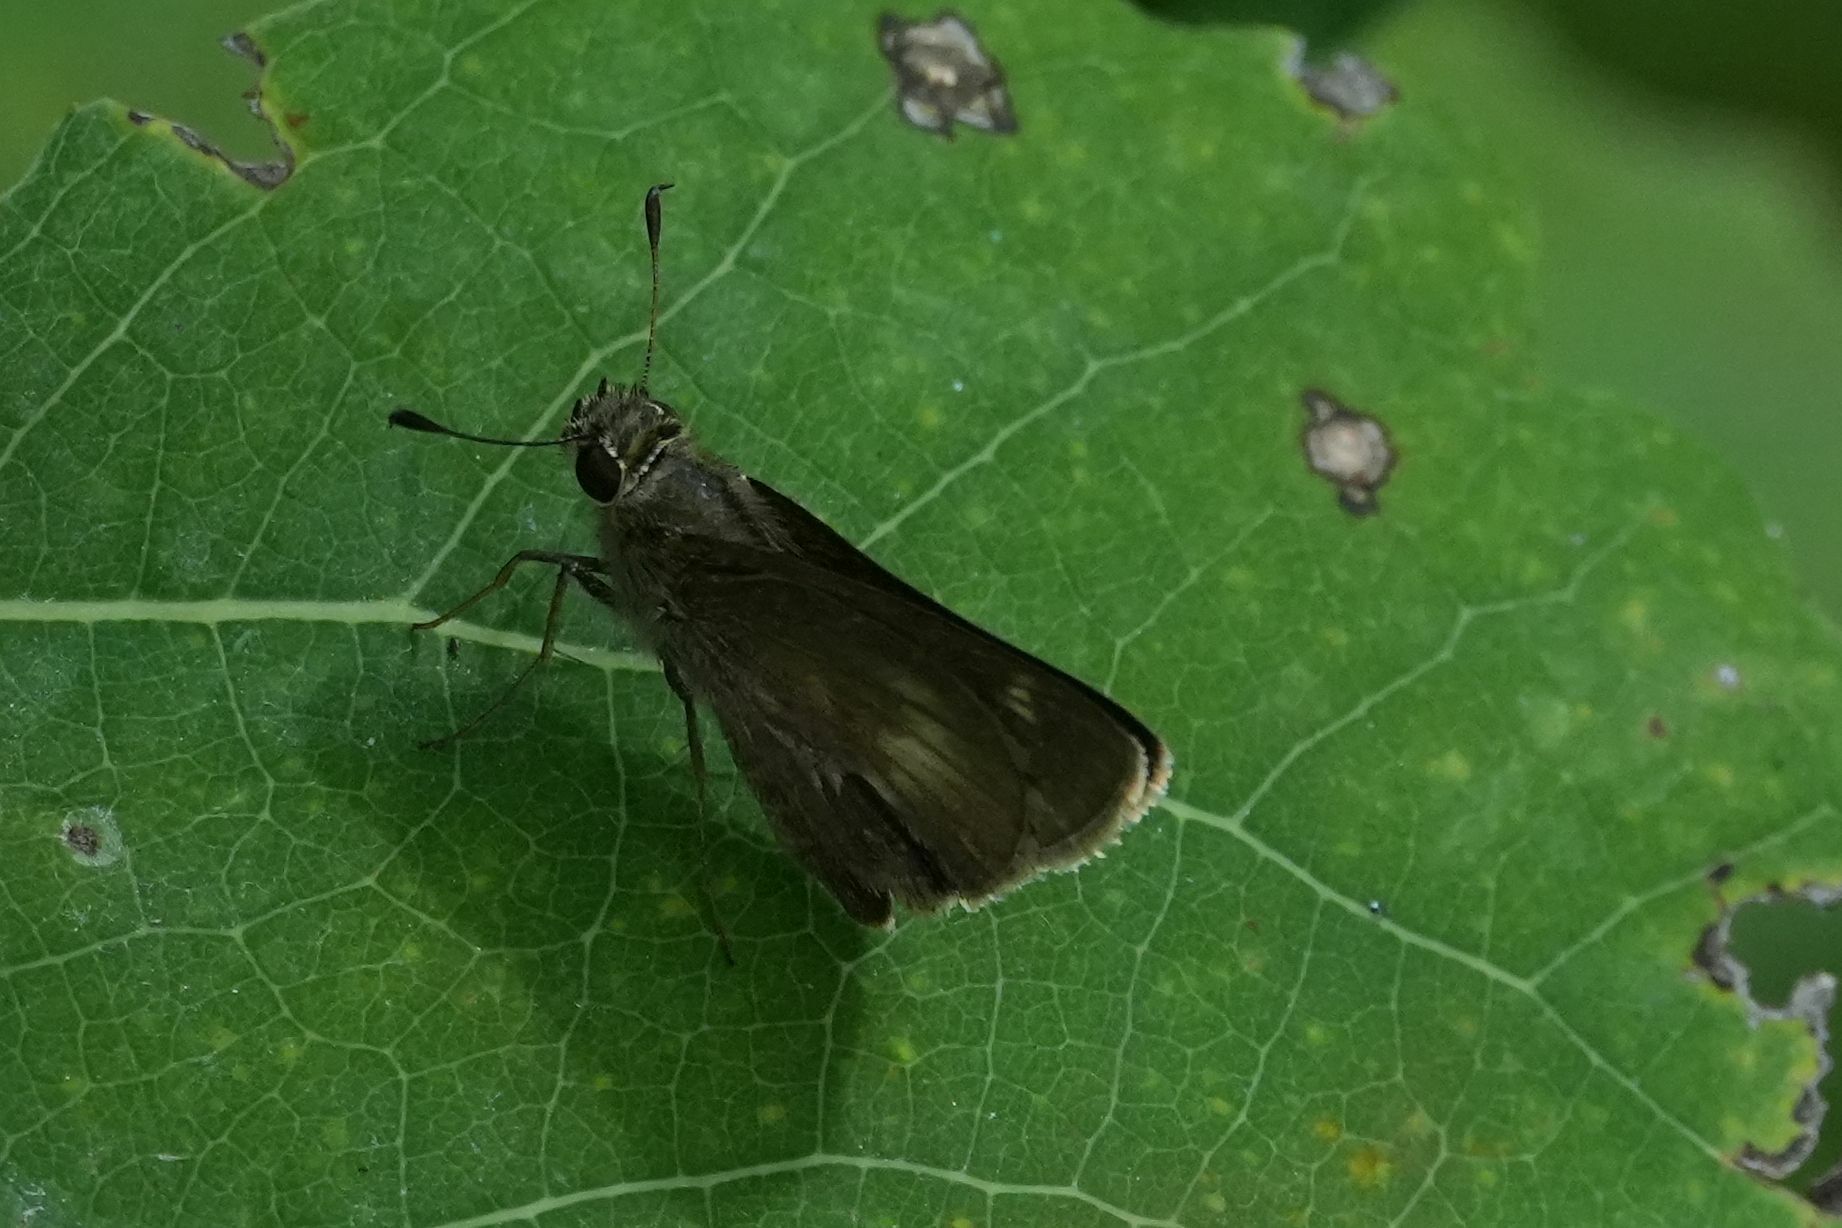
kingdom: Animalia
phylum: Arthropoda
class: Insecta
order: Lepidoptera
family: Hesperiidae
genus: Polites
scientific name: Polites egeremet
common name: Northern broken-dash
